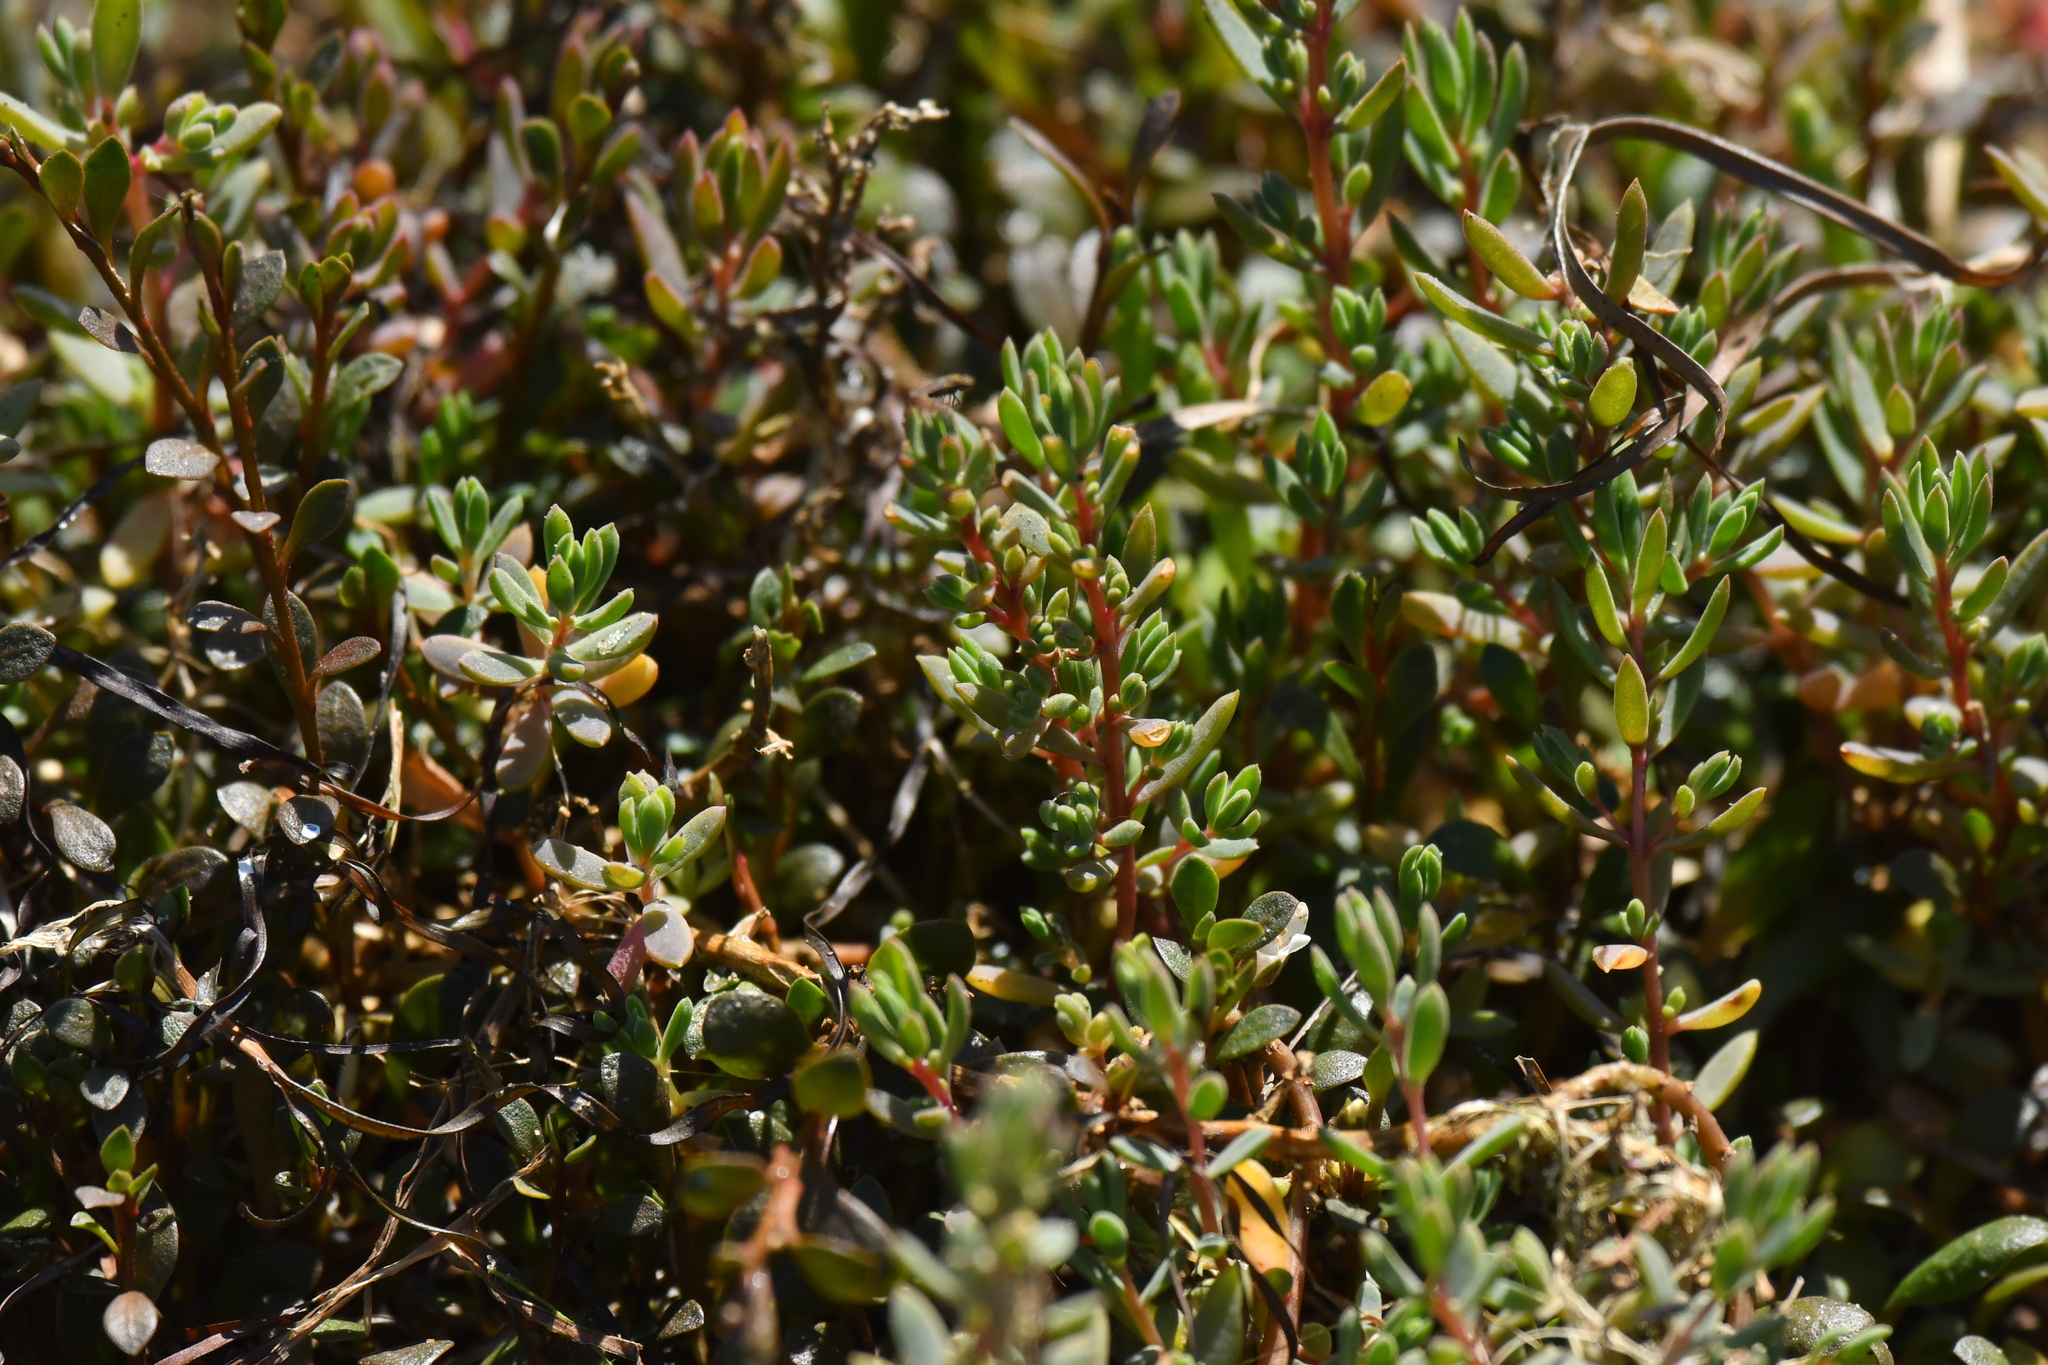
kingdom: Plantae
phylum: Tracheophyta
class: Magnoliopsida
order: Caryophyllales
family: Amaranthaceae
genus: Suaeda
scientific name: Suaeda novae-zelandiae
